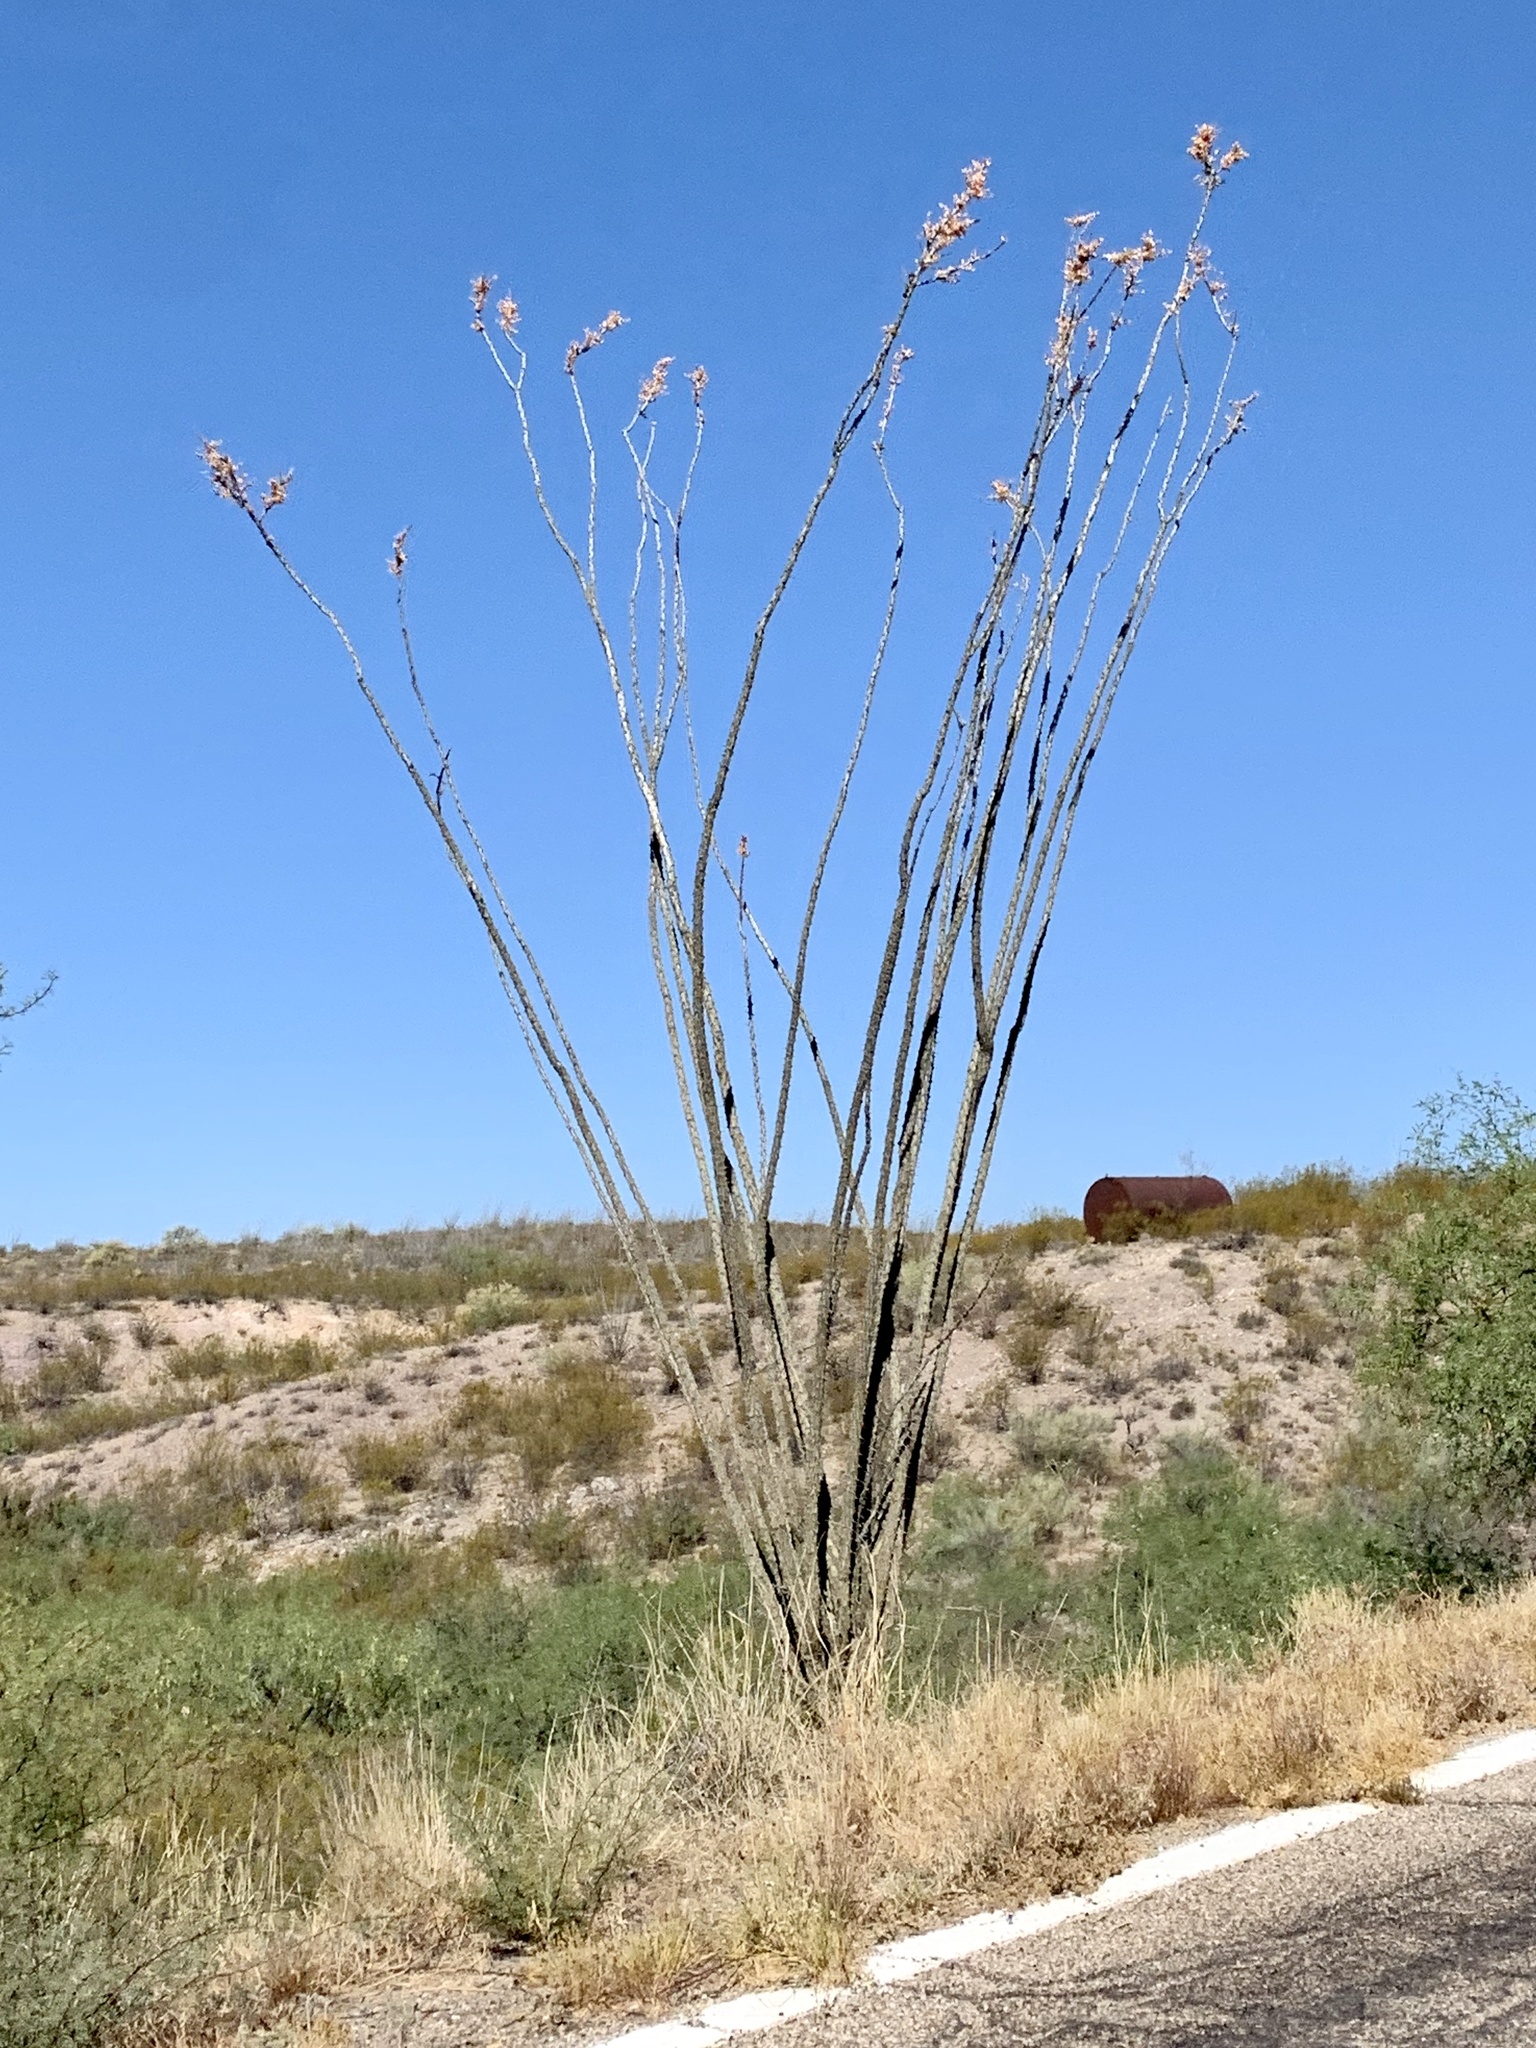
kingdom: Plantae
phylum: Tracheophyta
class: Magnoliopsida
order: Ericales
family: Fouquieriaceae
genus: Fouquieria
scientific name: Fouquieria splendens
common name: Vine-cactus
